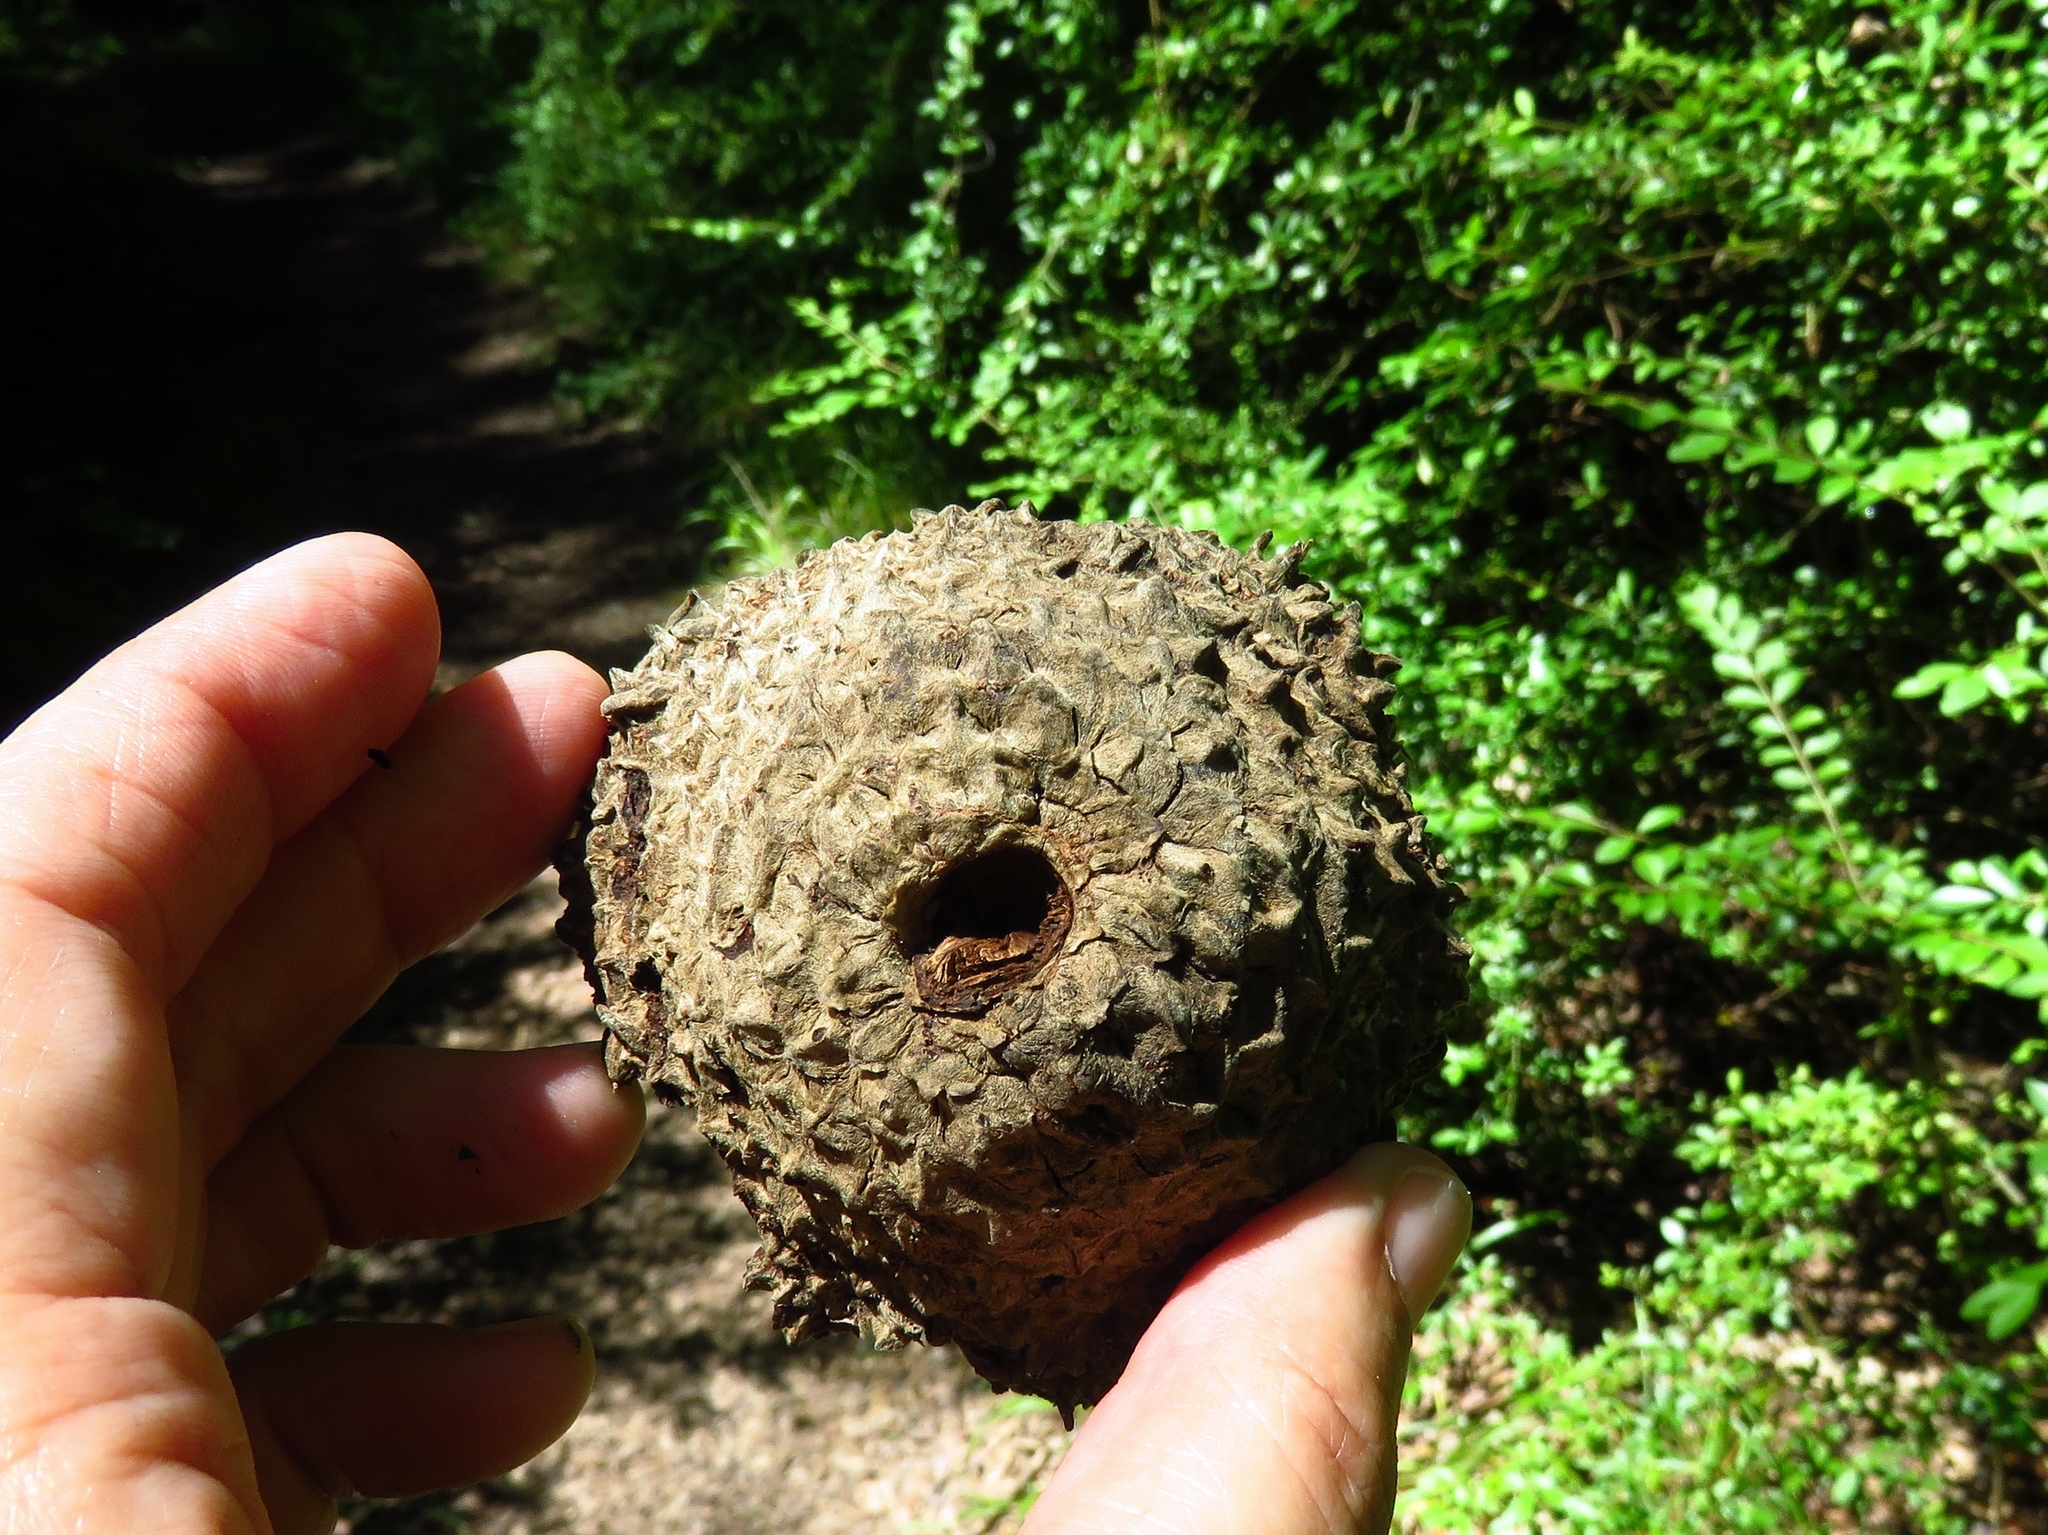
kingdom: Plantae
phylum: Tracheophyta
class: Magnoliopsida
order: Fagales
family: Fagaceae
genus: Quercus
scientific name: Quercus macrocarpa
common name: Bur oak
